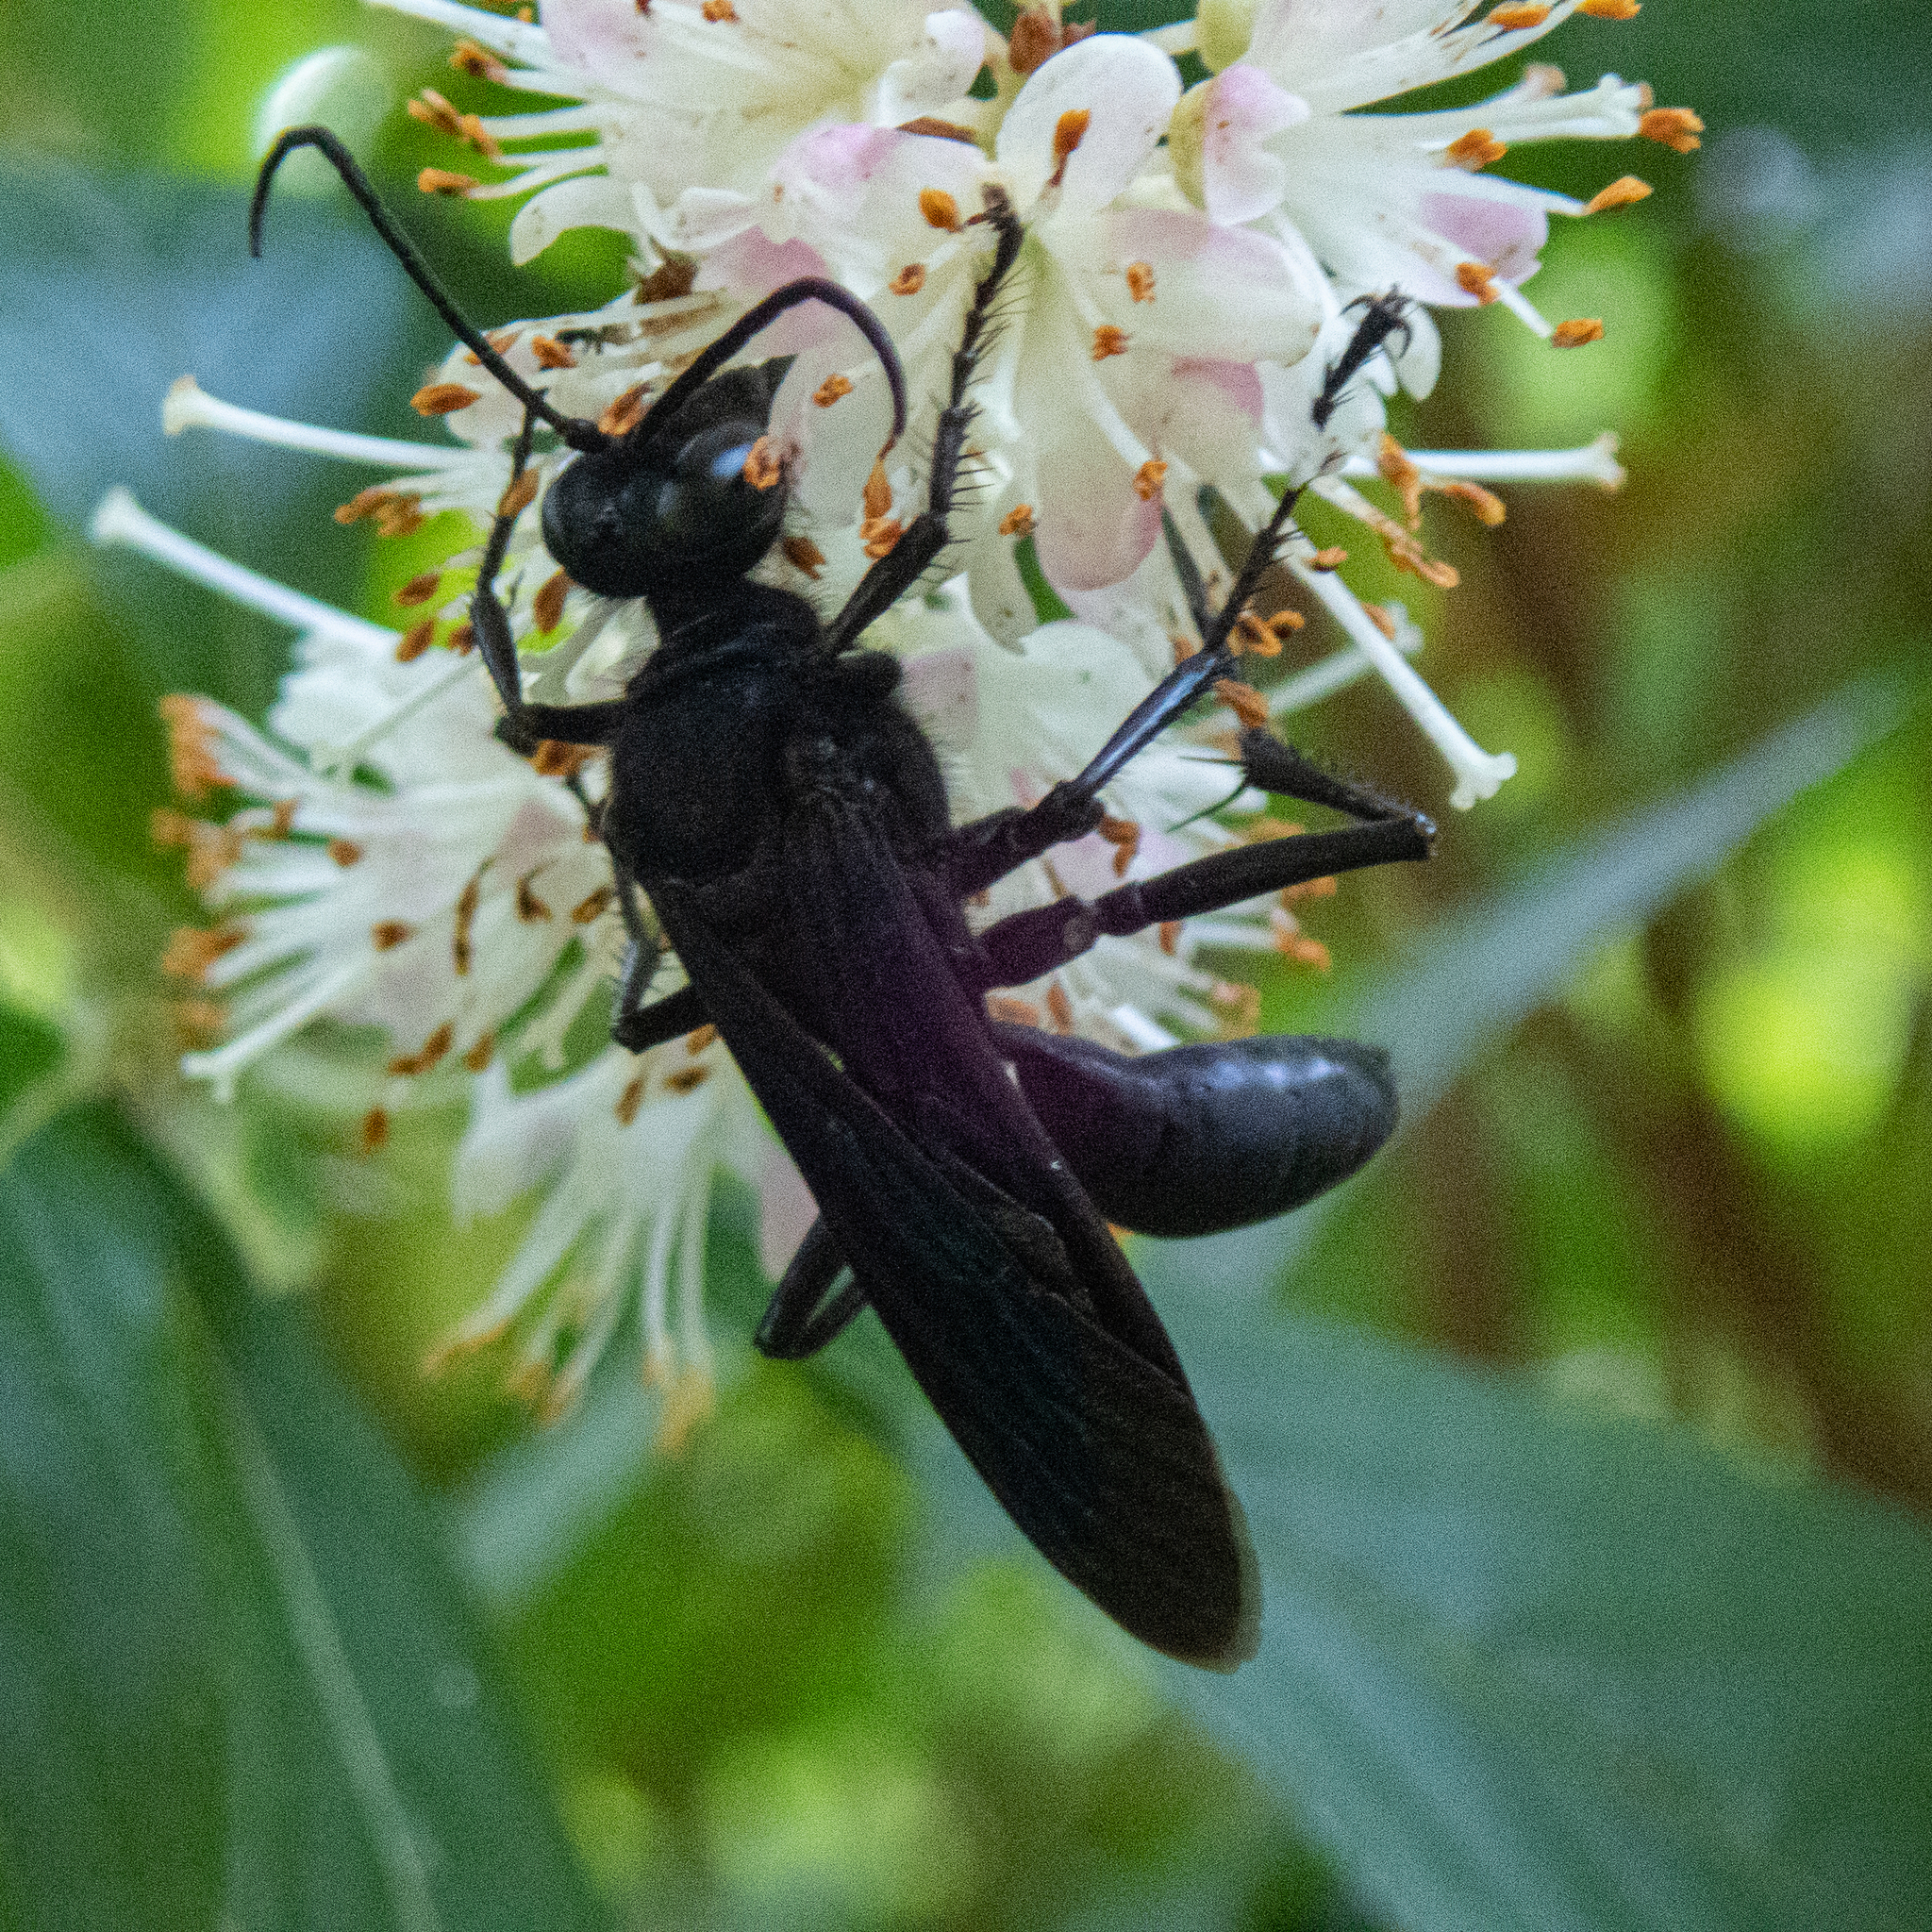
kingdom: Animalia
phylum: Arthropoda
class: Insecta
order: Hymenoptera
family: Sphecidae
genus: Sphex
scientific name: Sphex pensylvanicus
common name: Great black digger wasp
